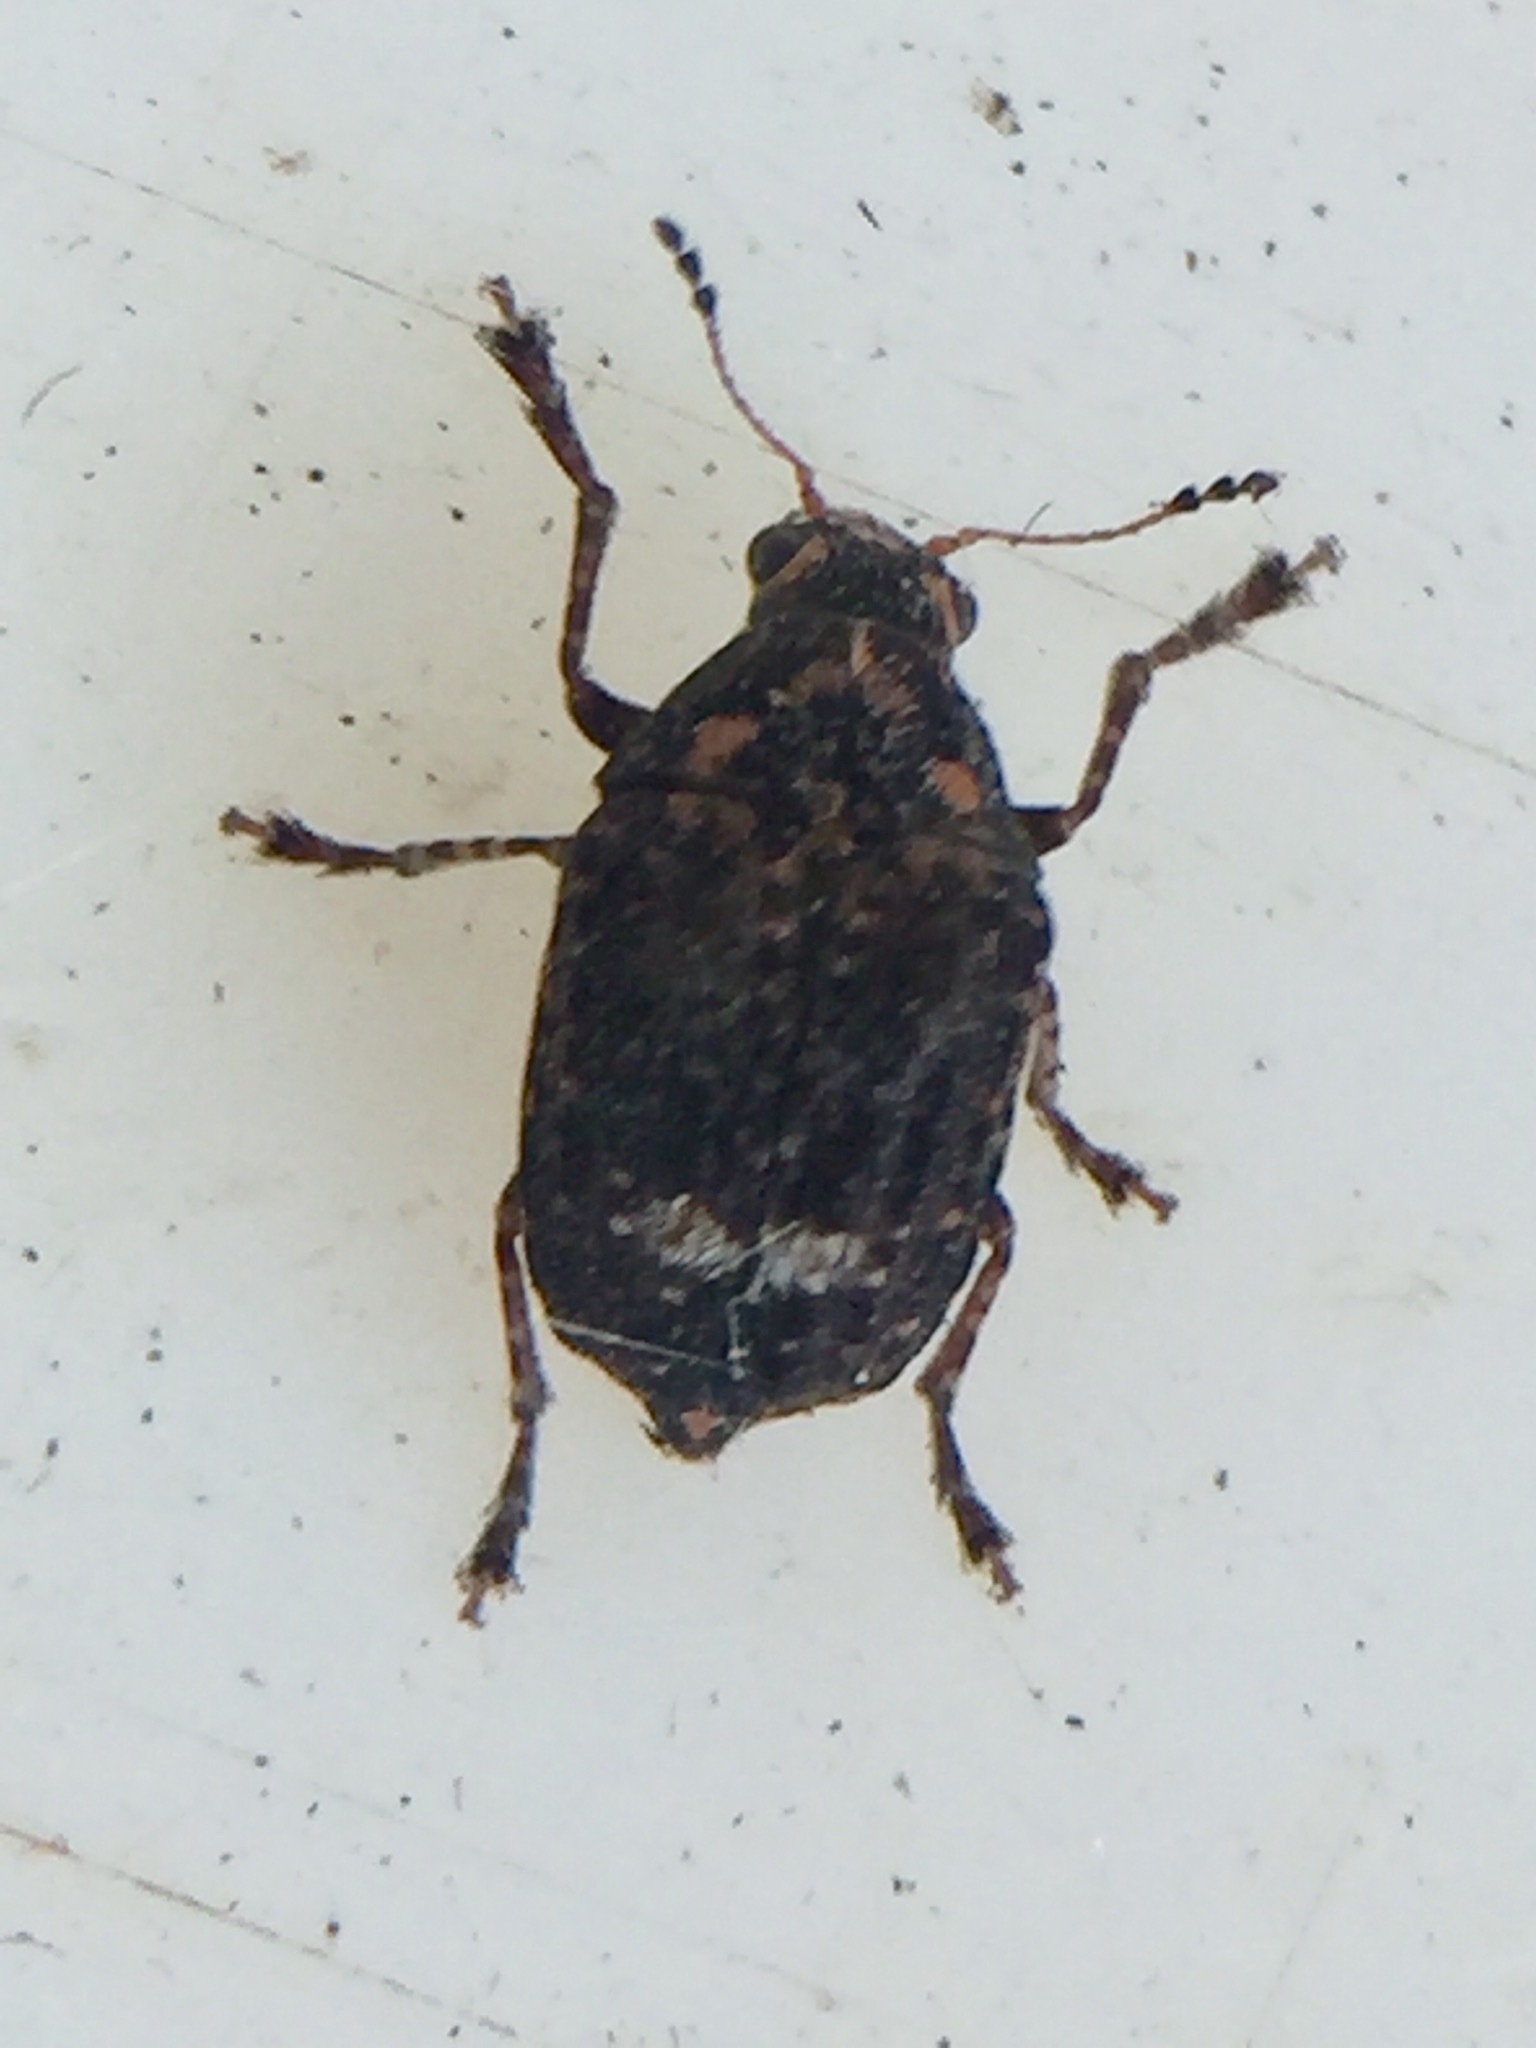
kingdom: Animalia
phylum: Arthropoda
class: Insecta
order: Coleoptera
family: Anthribidae
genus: Araecerus
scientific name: Araecerus
